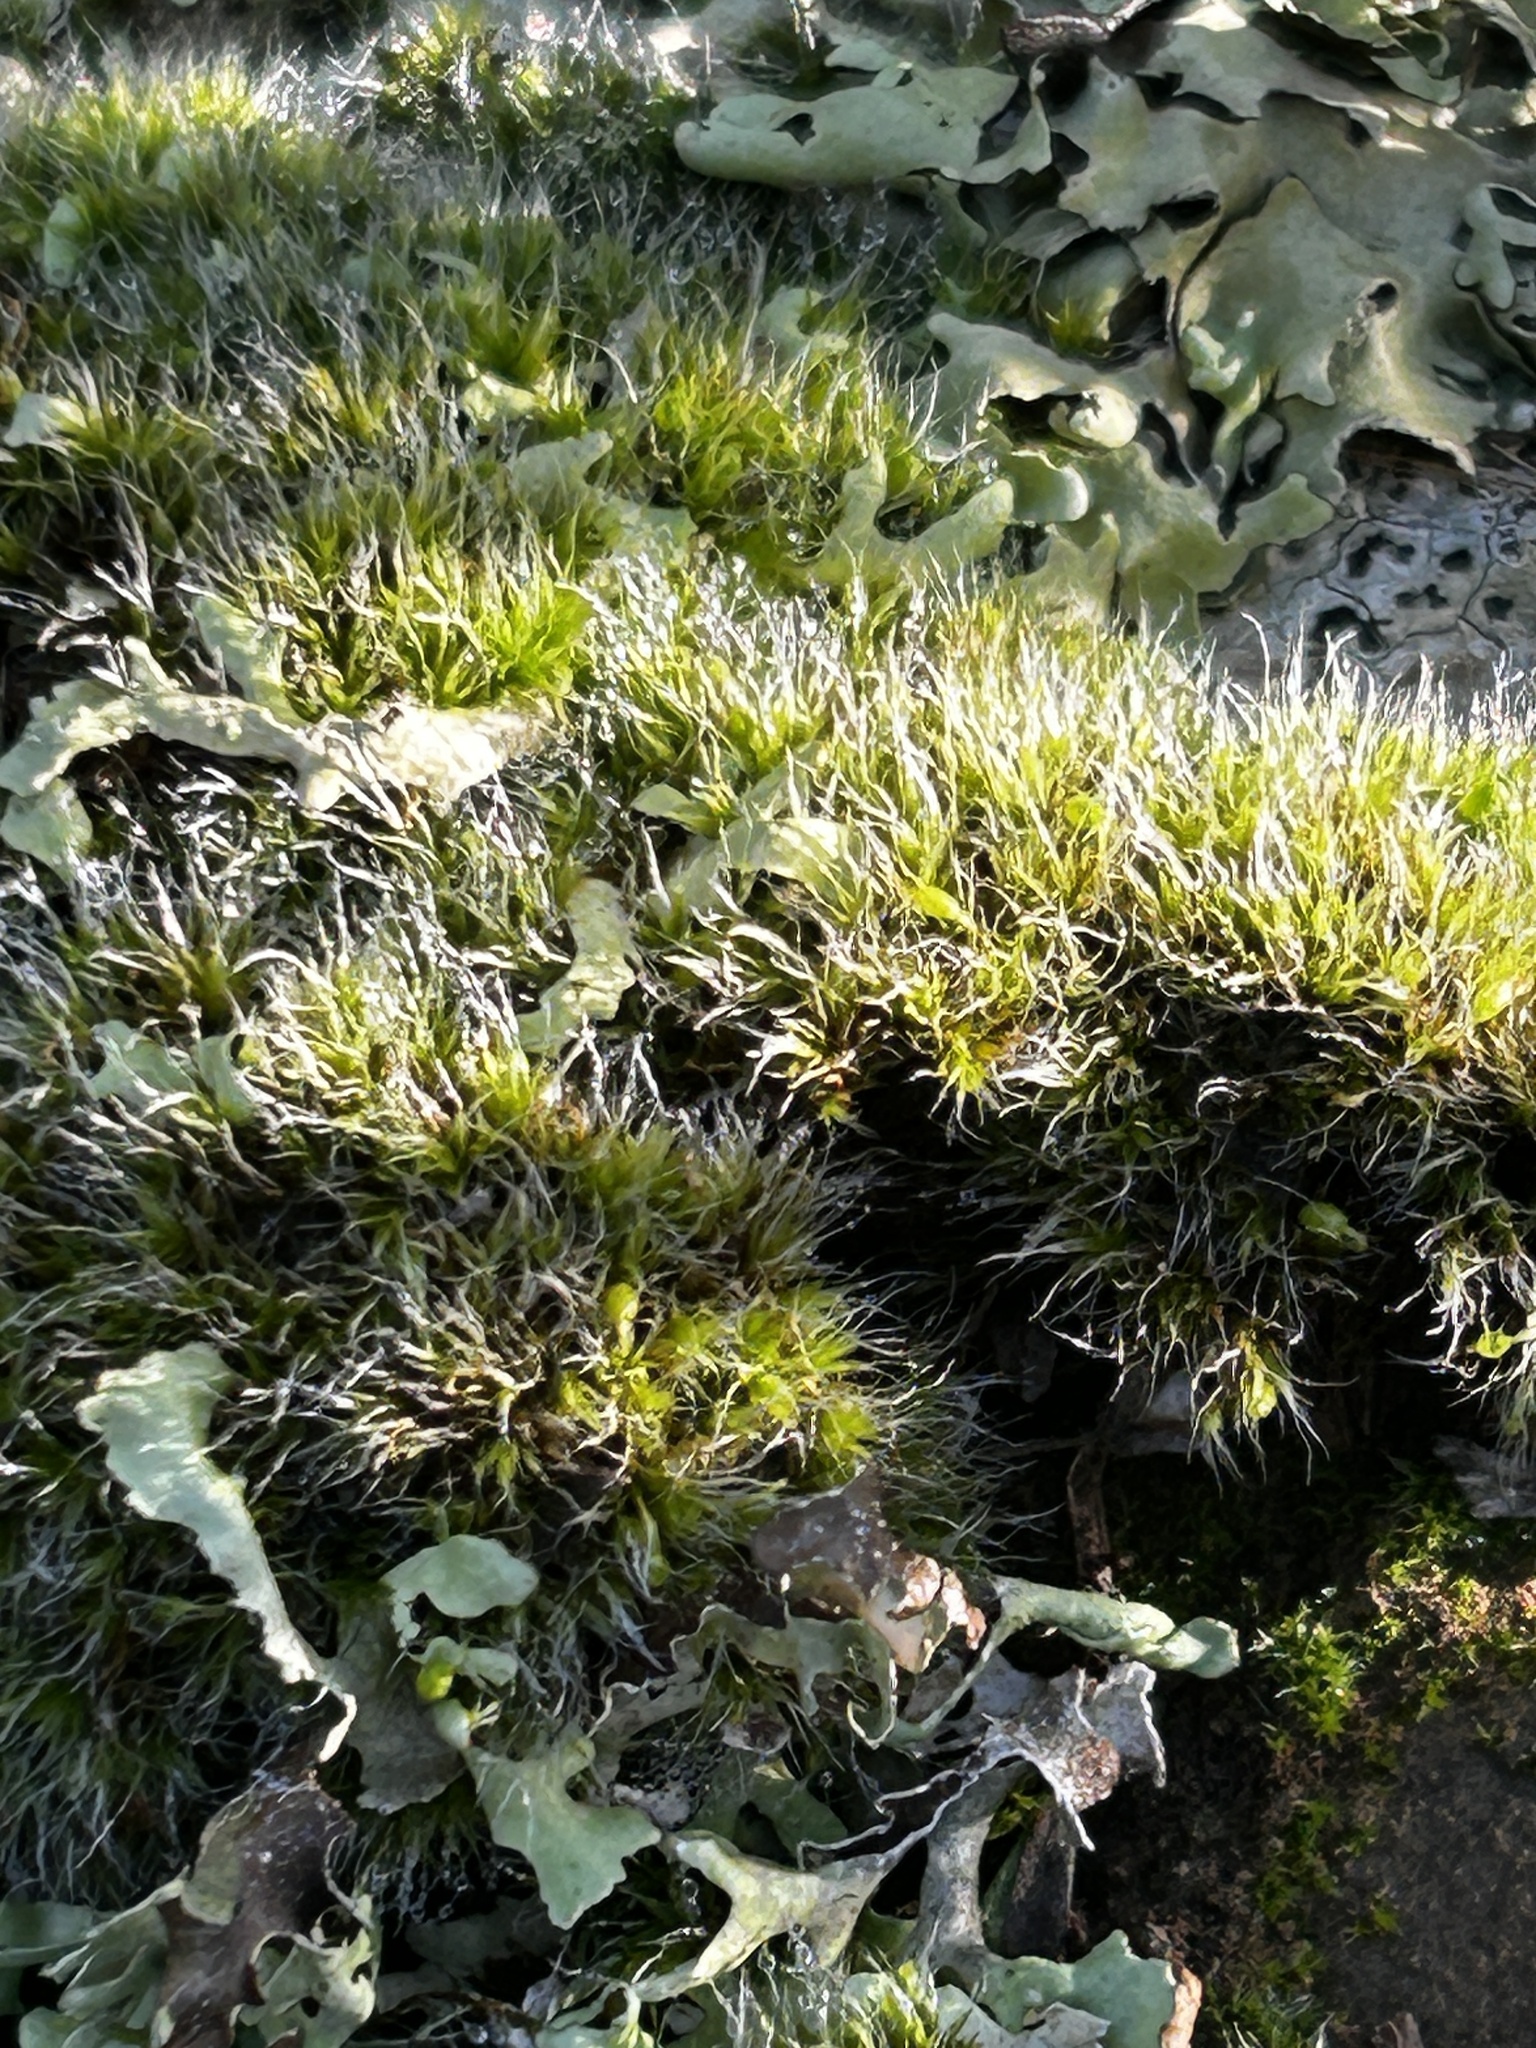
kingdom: Plantae
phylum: Bryophyta
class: Bryopsida
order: Grimmiales
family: Grimmiaceae
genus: Grimmia
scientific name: Grimmia pulvinata
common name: Grey-cushioned grimmia
